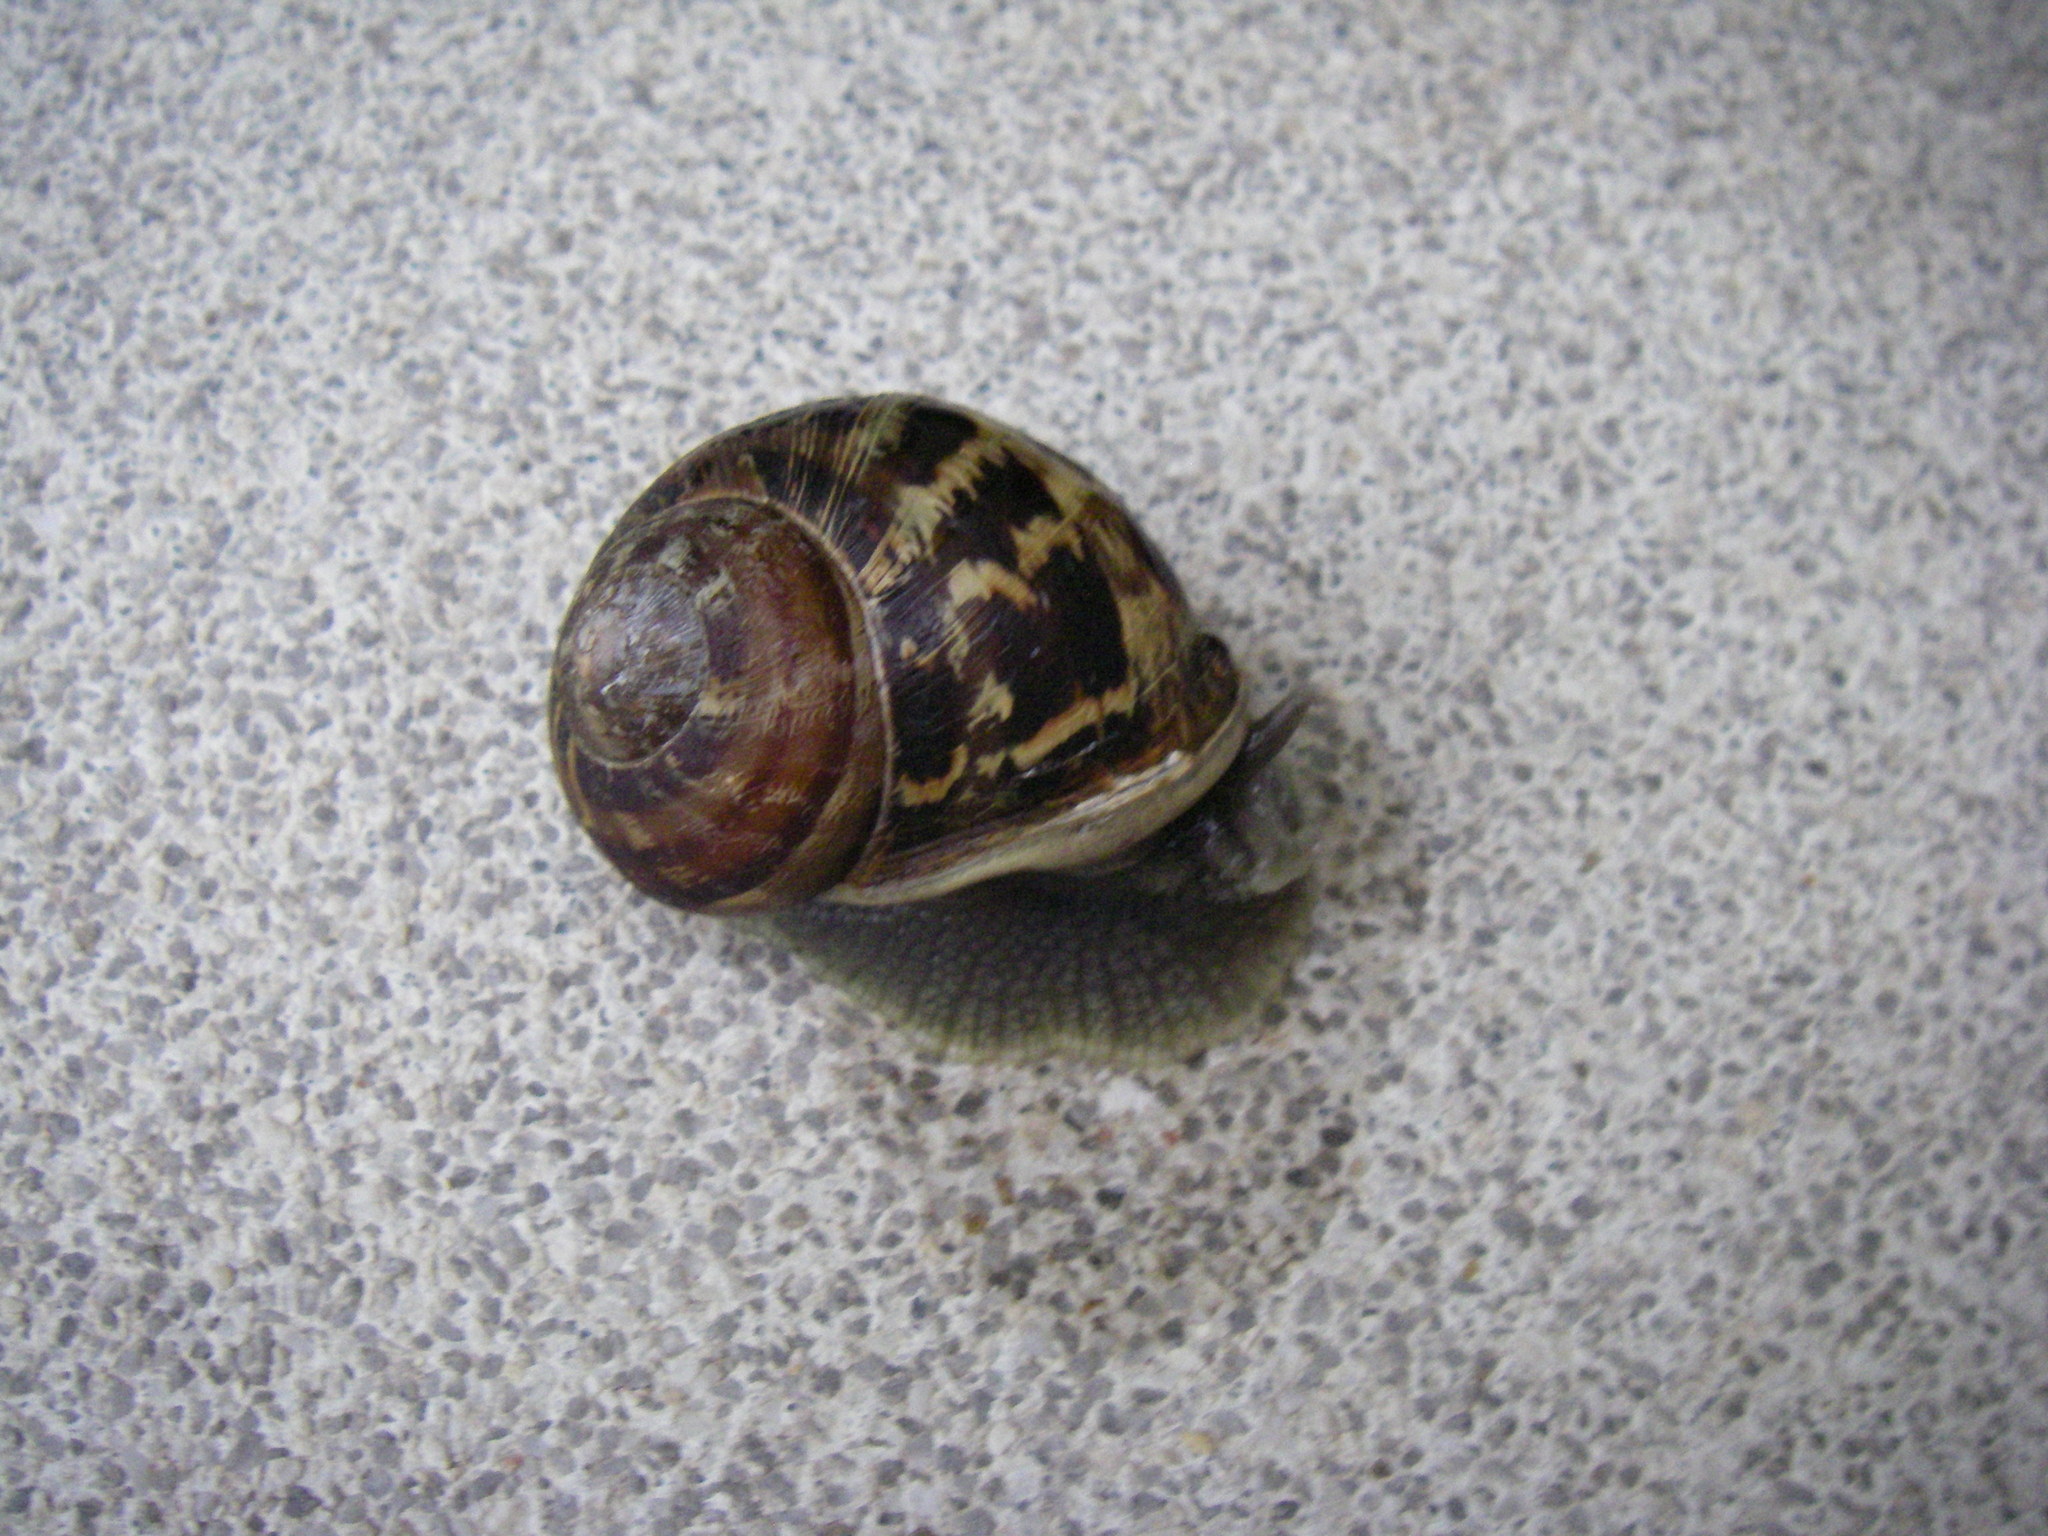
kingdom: Animalia
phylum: Mollusca
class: Gastropoda
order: Stylommatophora
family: Helicidae
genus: Cornu
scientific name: Cornu aspersum
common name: Brown garden snail
